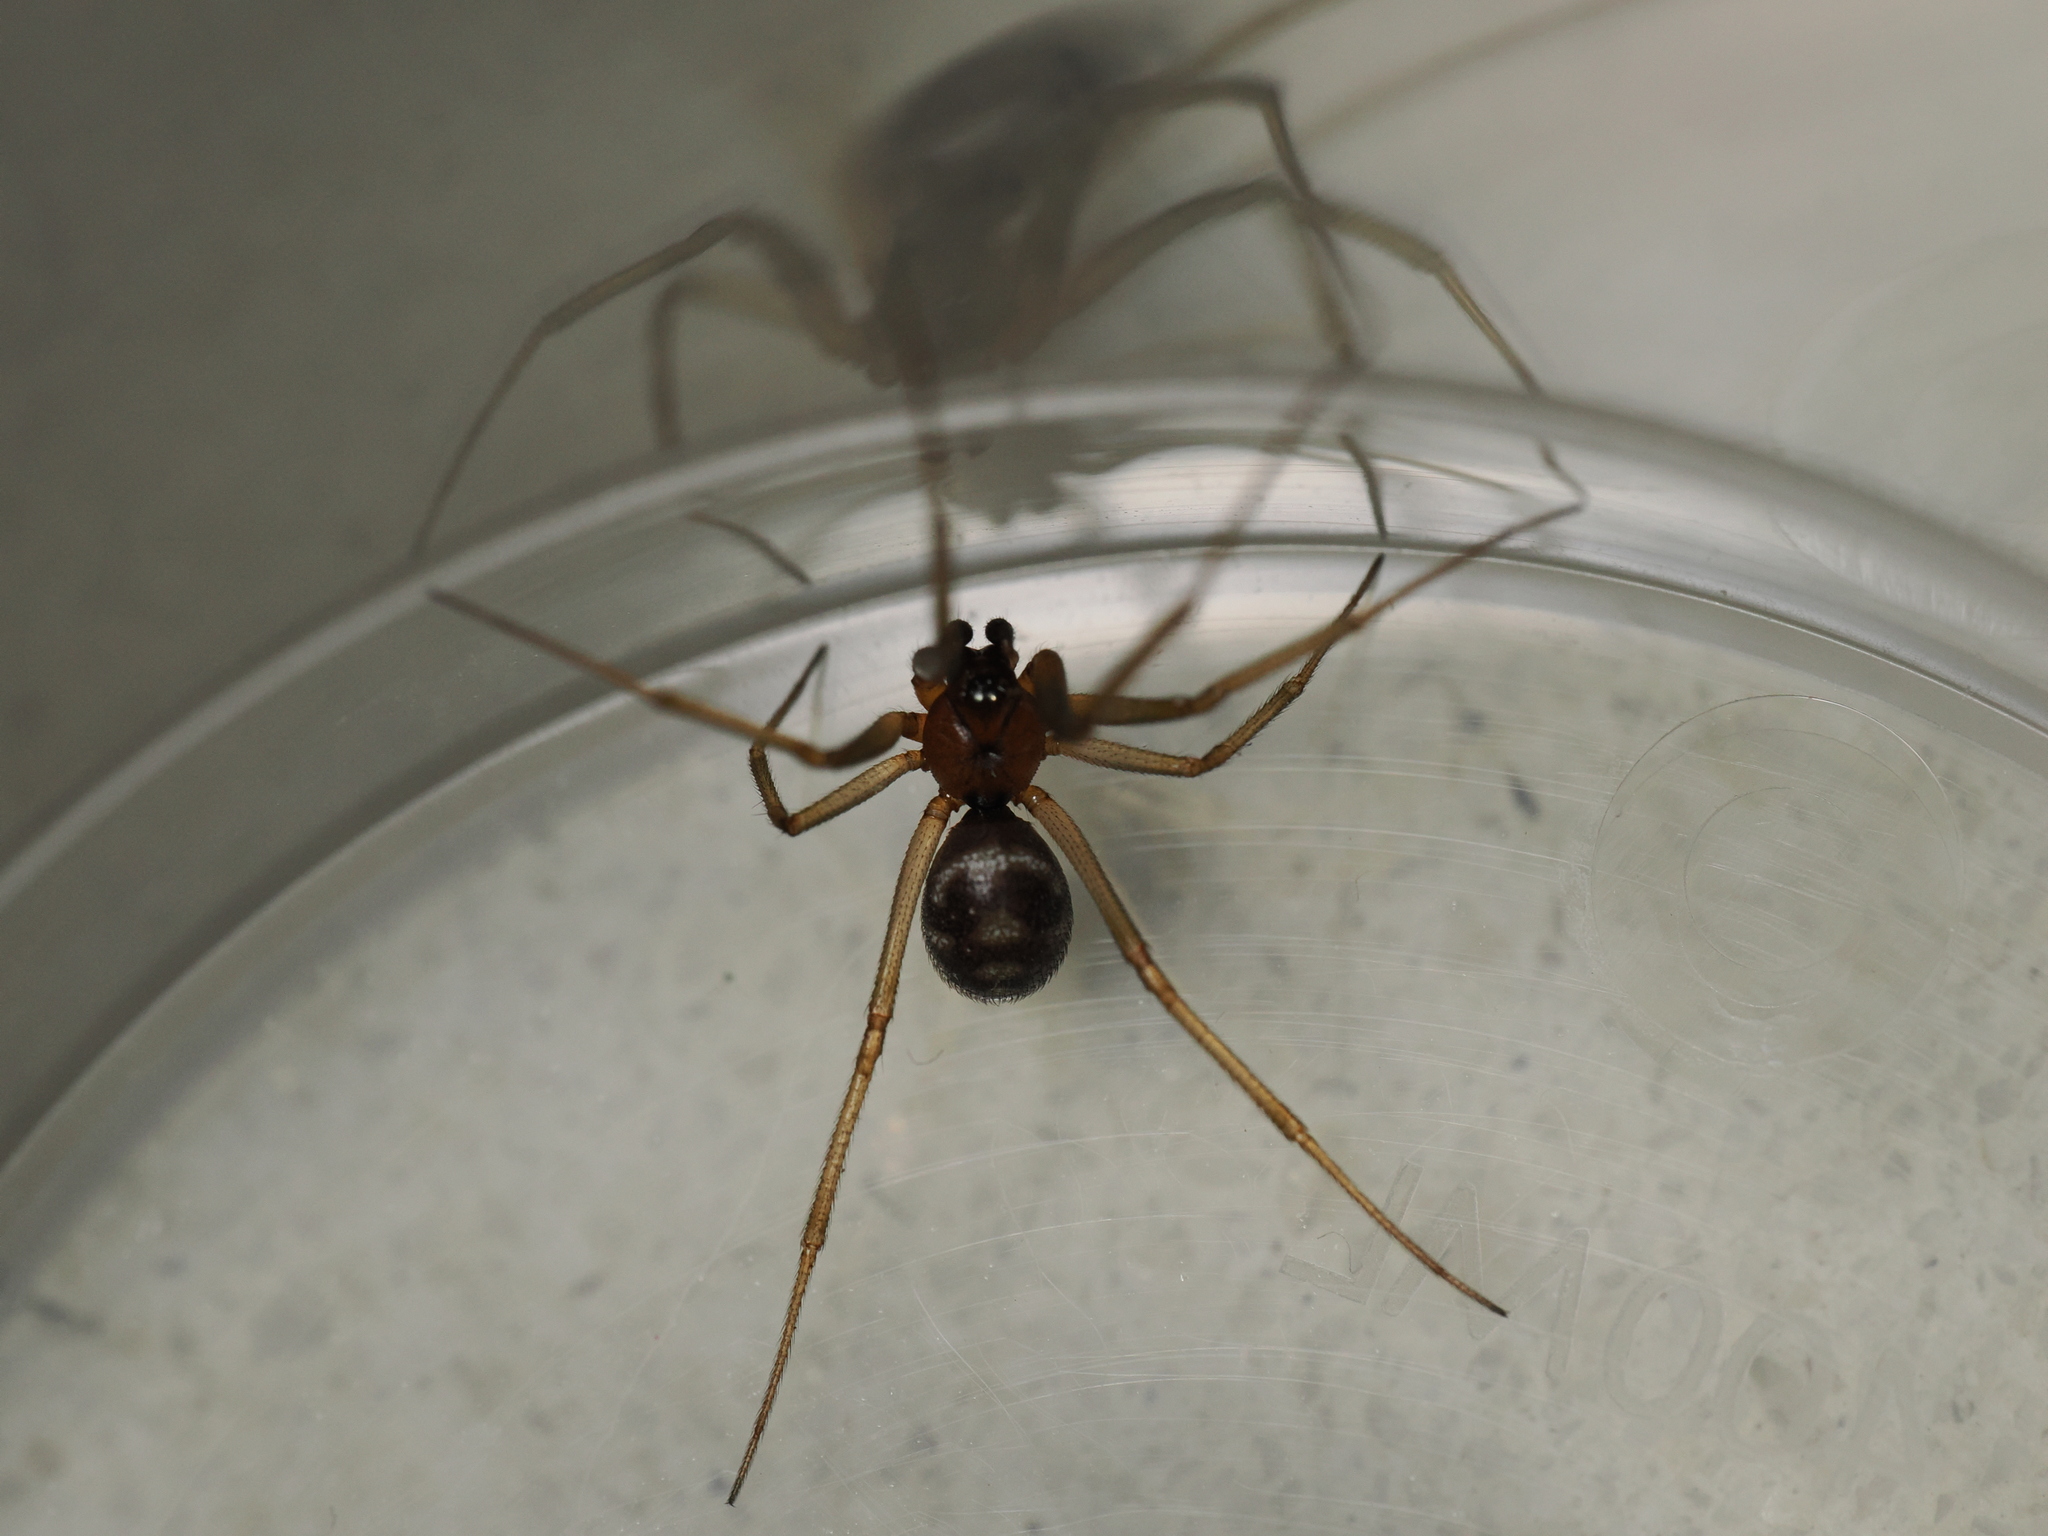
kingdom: Animalia
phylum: Arthropoda
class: Arachnida
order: Araneae
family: Theridiidae
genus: Steatoda
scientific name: Steatoda grossa
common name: False black widow
